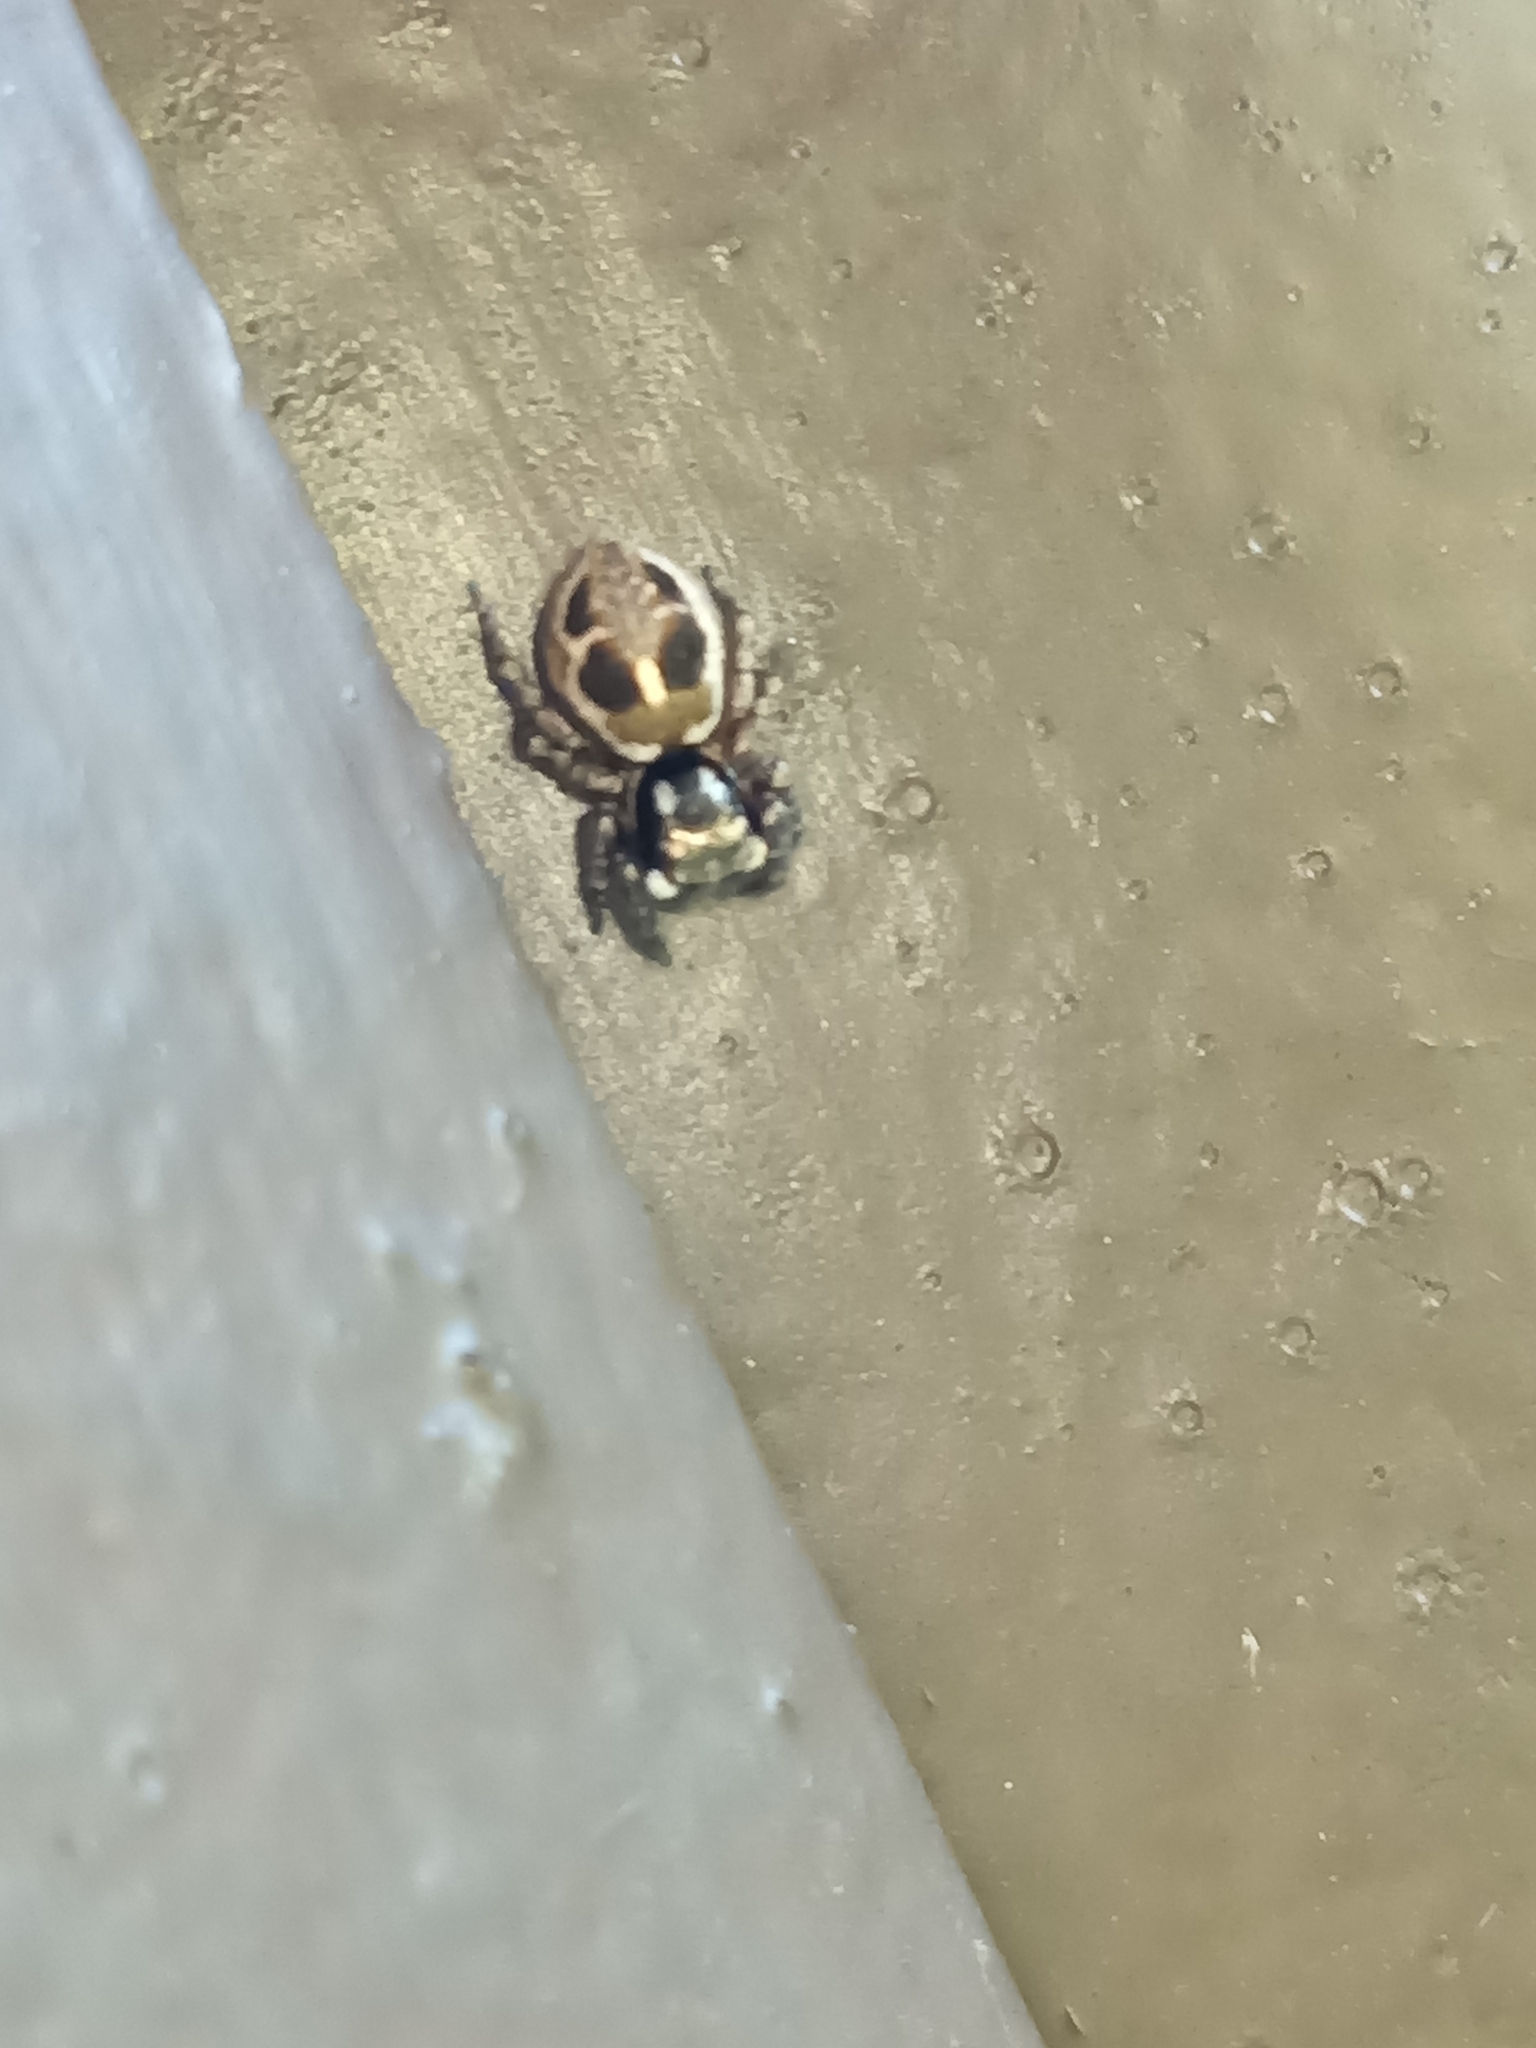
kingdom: Animalia
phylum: Arthropoda
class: Arachnida
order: Araneae
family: Salticidae
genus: Anasaitis
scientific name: Anasaitis canosa
